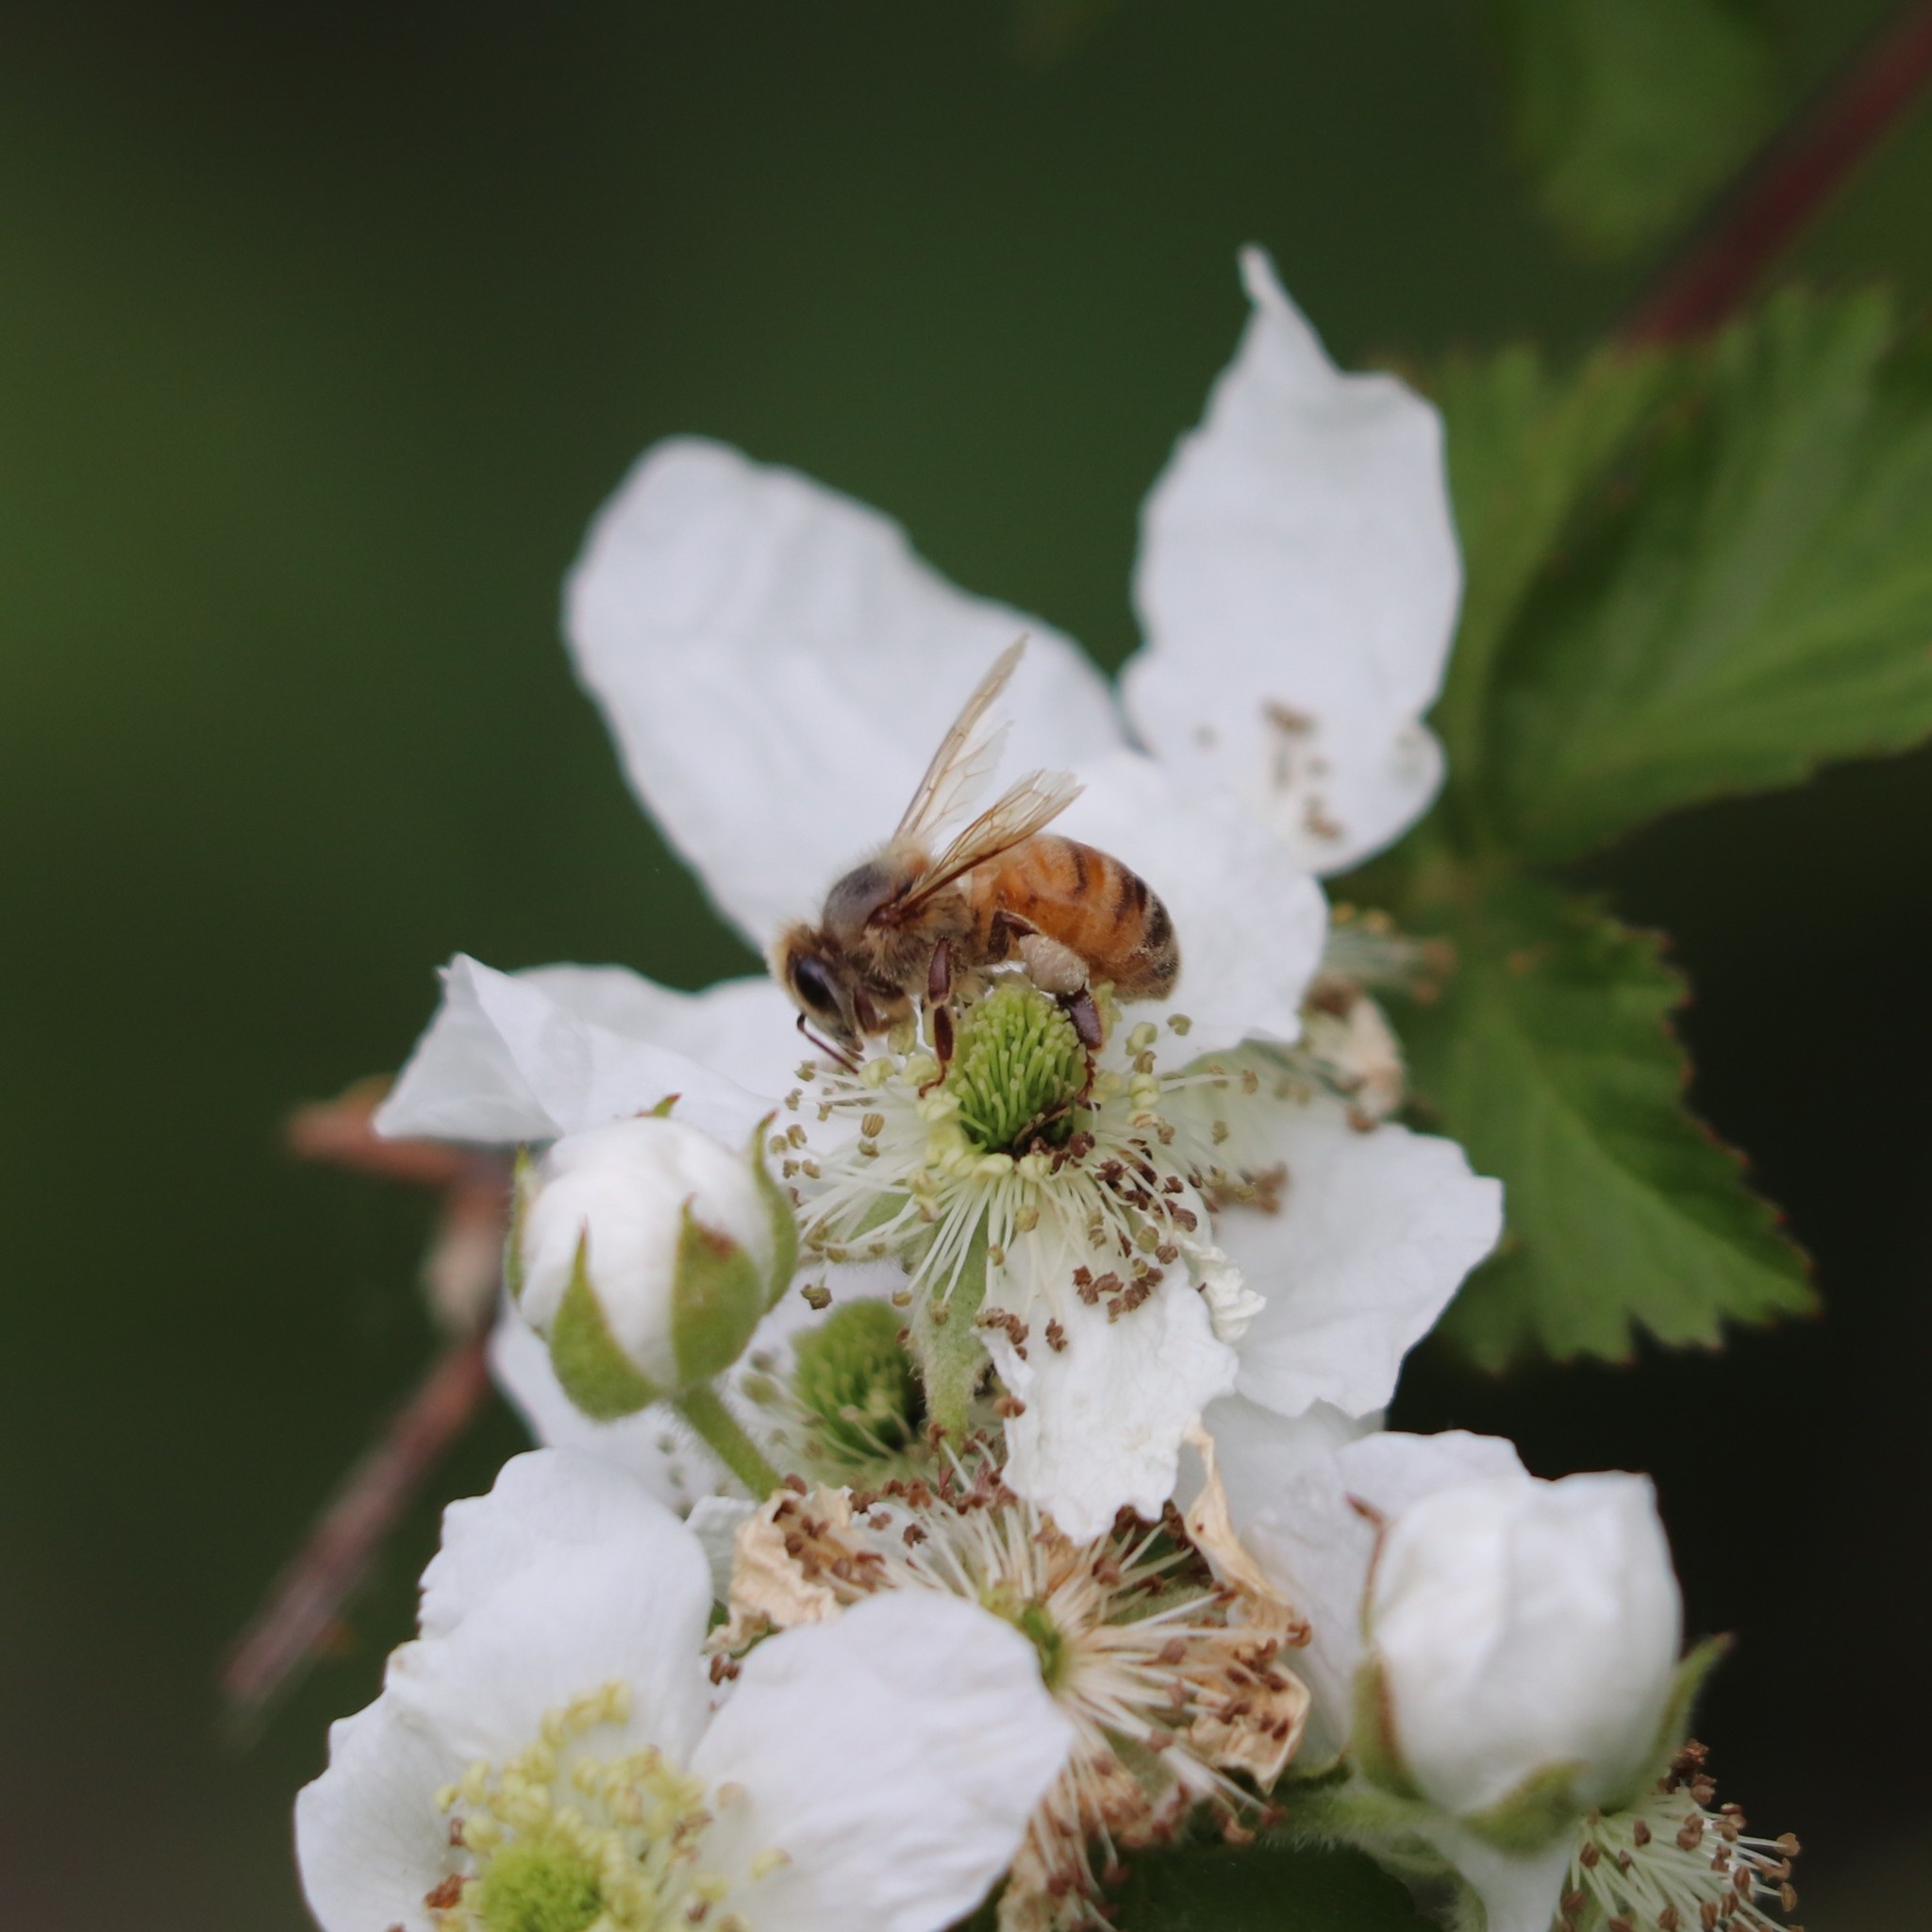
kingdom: Animalia
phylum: Arthropoda
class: Insecta
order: Hymenoptera
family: Apidae
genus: Apis
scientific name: Apis mellifera
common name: Honey bee
